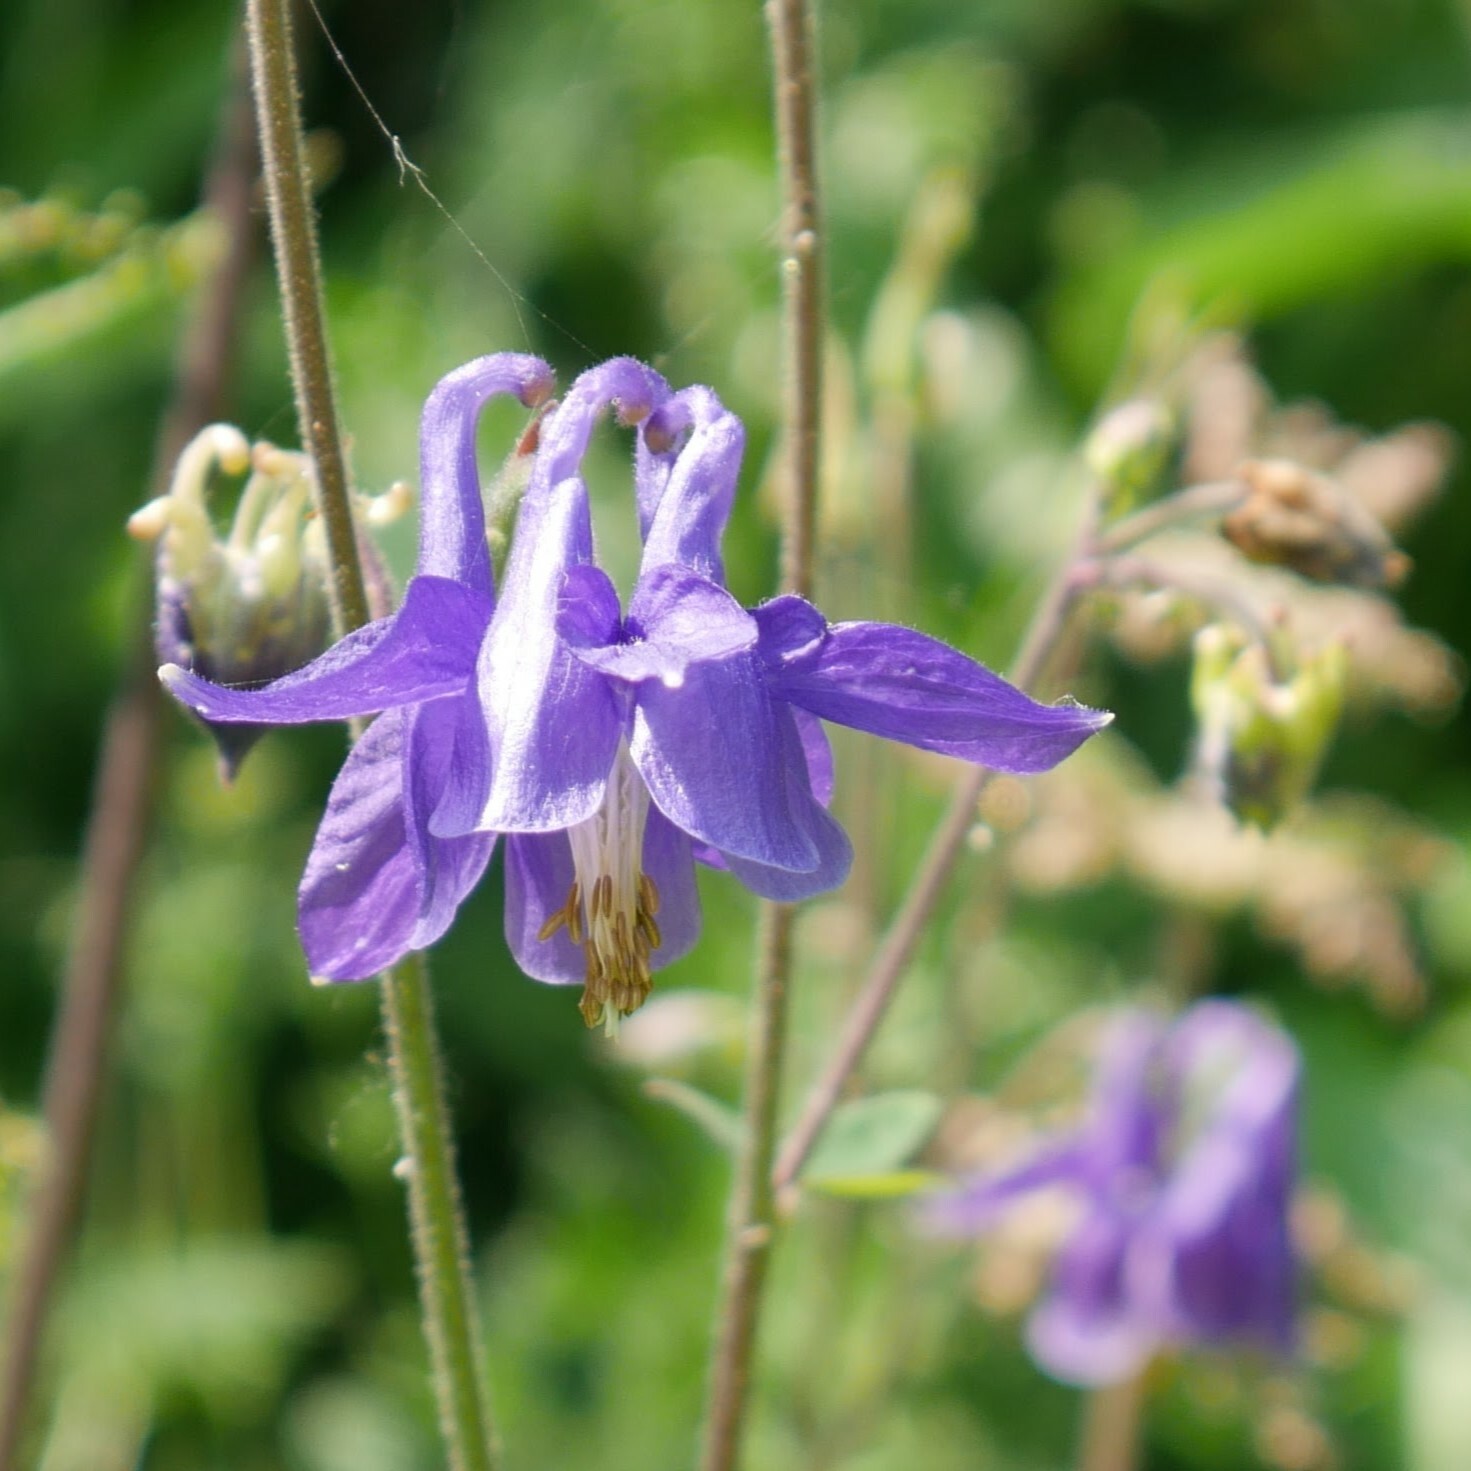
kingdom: Plantae
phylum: Tracheophyta
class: Magnoliopsida
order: Ranunculales
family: Ranunculaceae
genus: Aquilegia
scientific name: Aquilegia vulgaris
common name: Columbine
